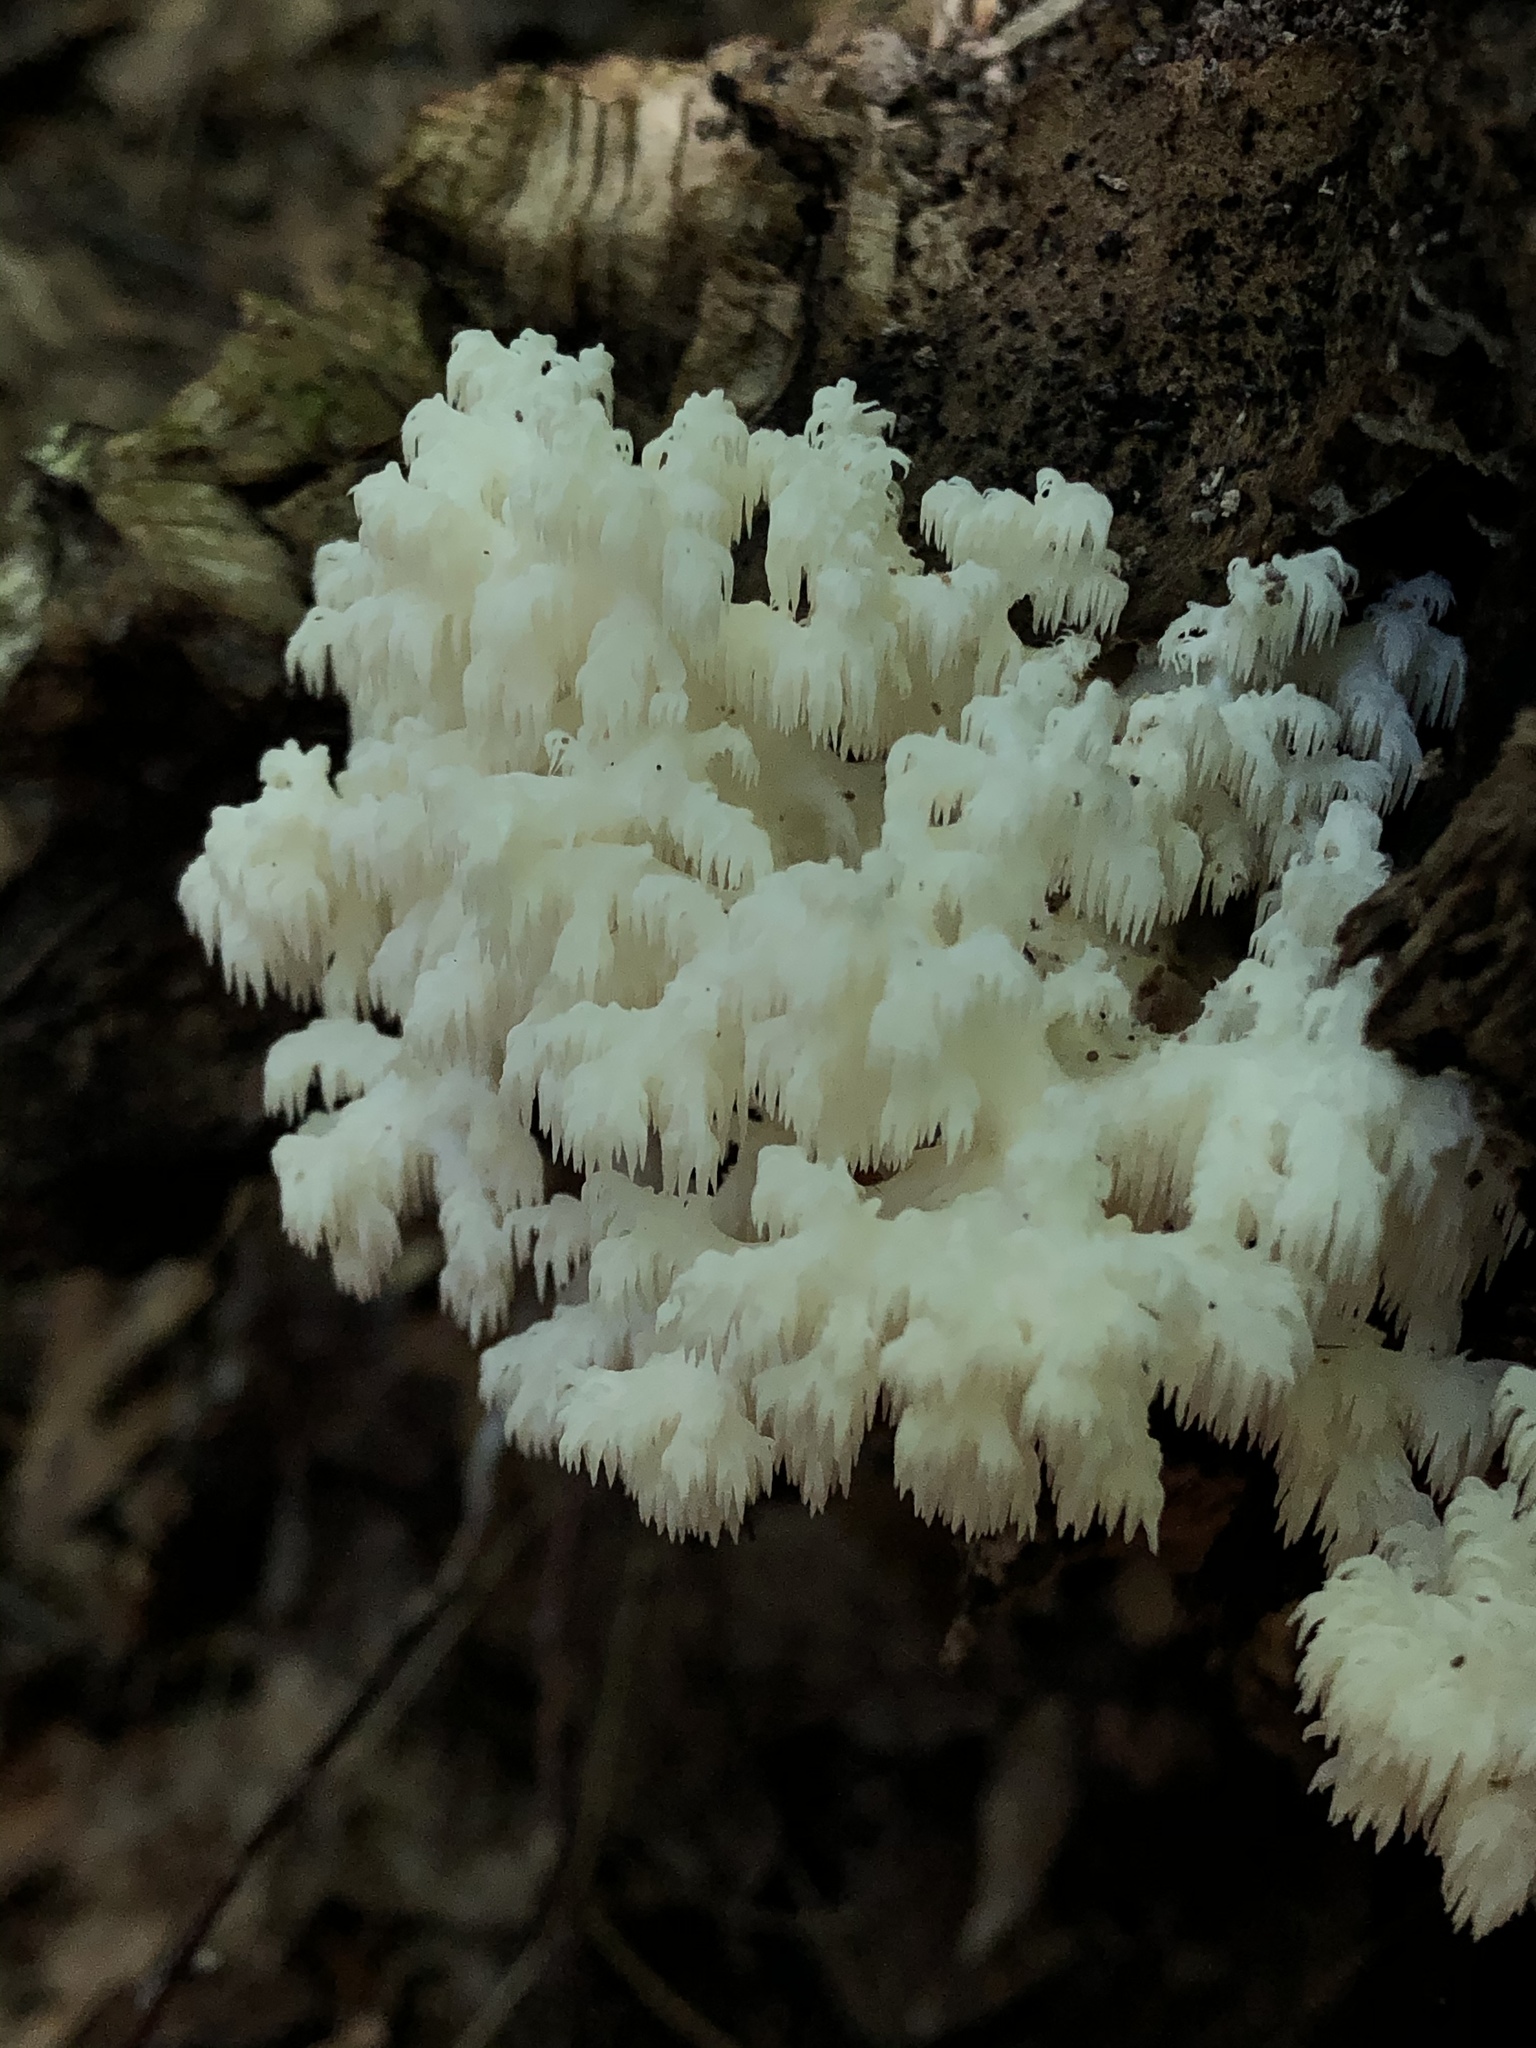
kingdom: Fungi
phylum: Basidiomycota
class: Agaricomycetes
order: Russulales
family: Hericiaceae
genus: Hericium
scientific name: Hericium coralloides
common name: Coral tooth
